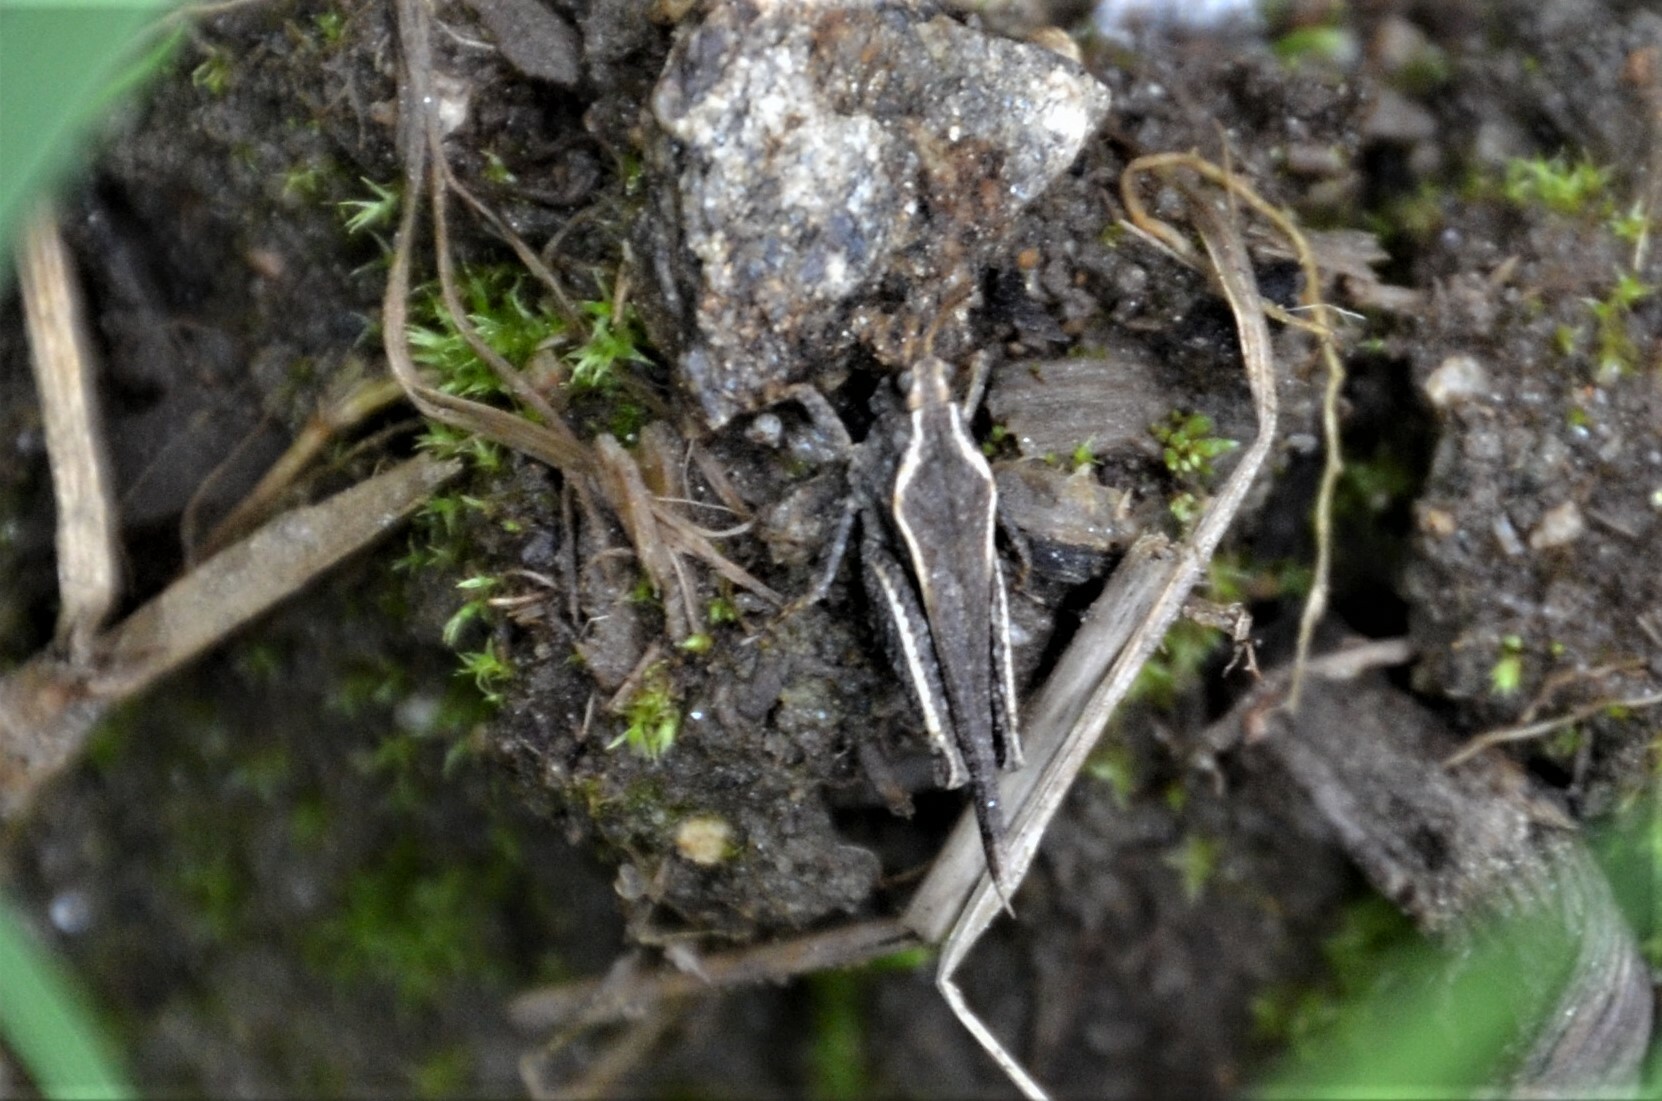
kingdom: Animalia
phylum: Arthropoda
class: Insecta
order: Orthoptera
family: Tetrigidae
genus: Tetrix
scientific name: Tetrix subulata
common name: Slender ground-hopper
